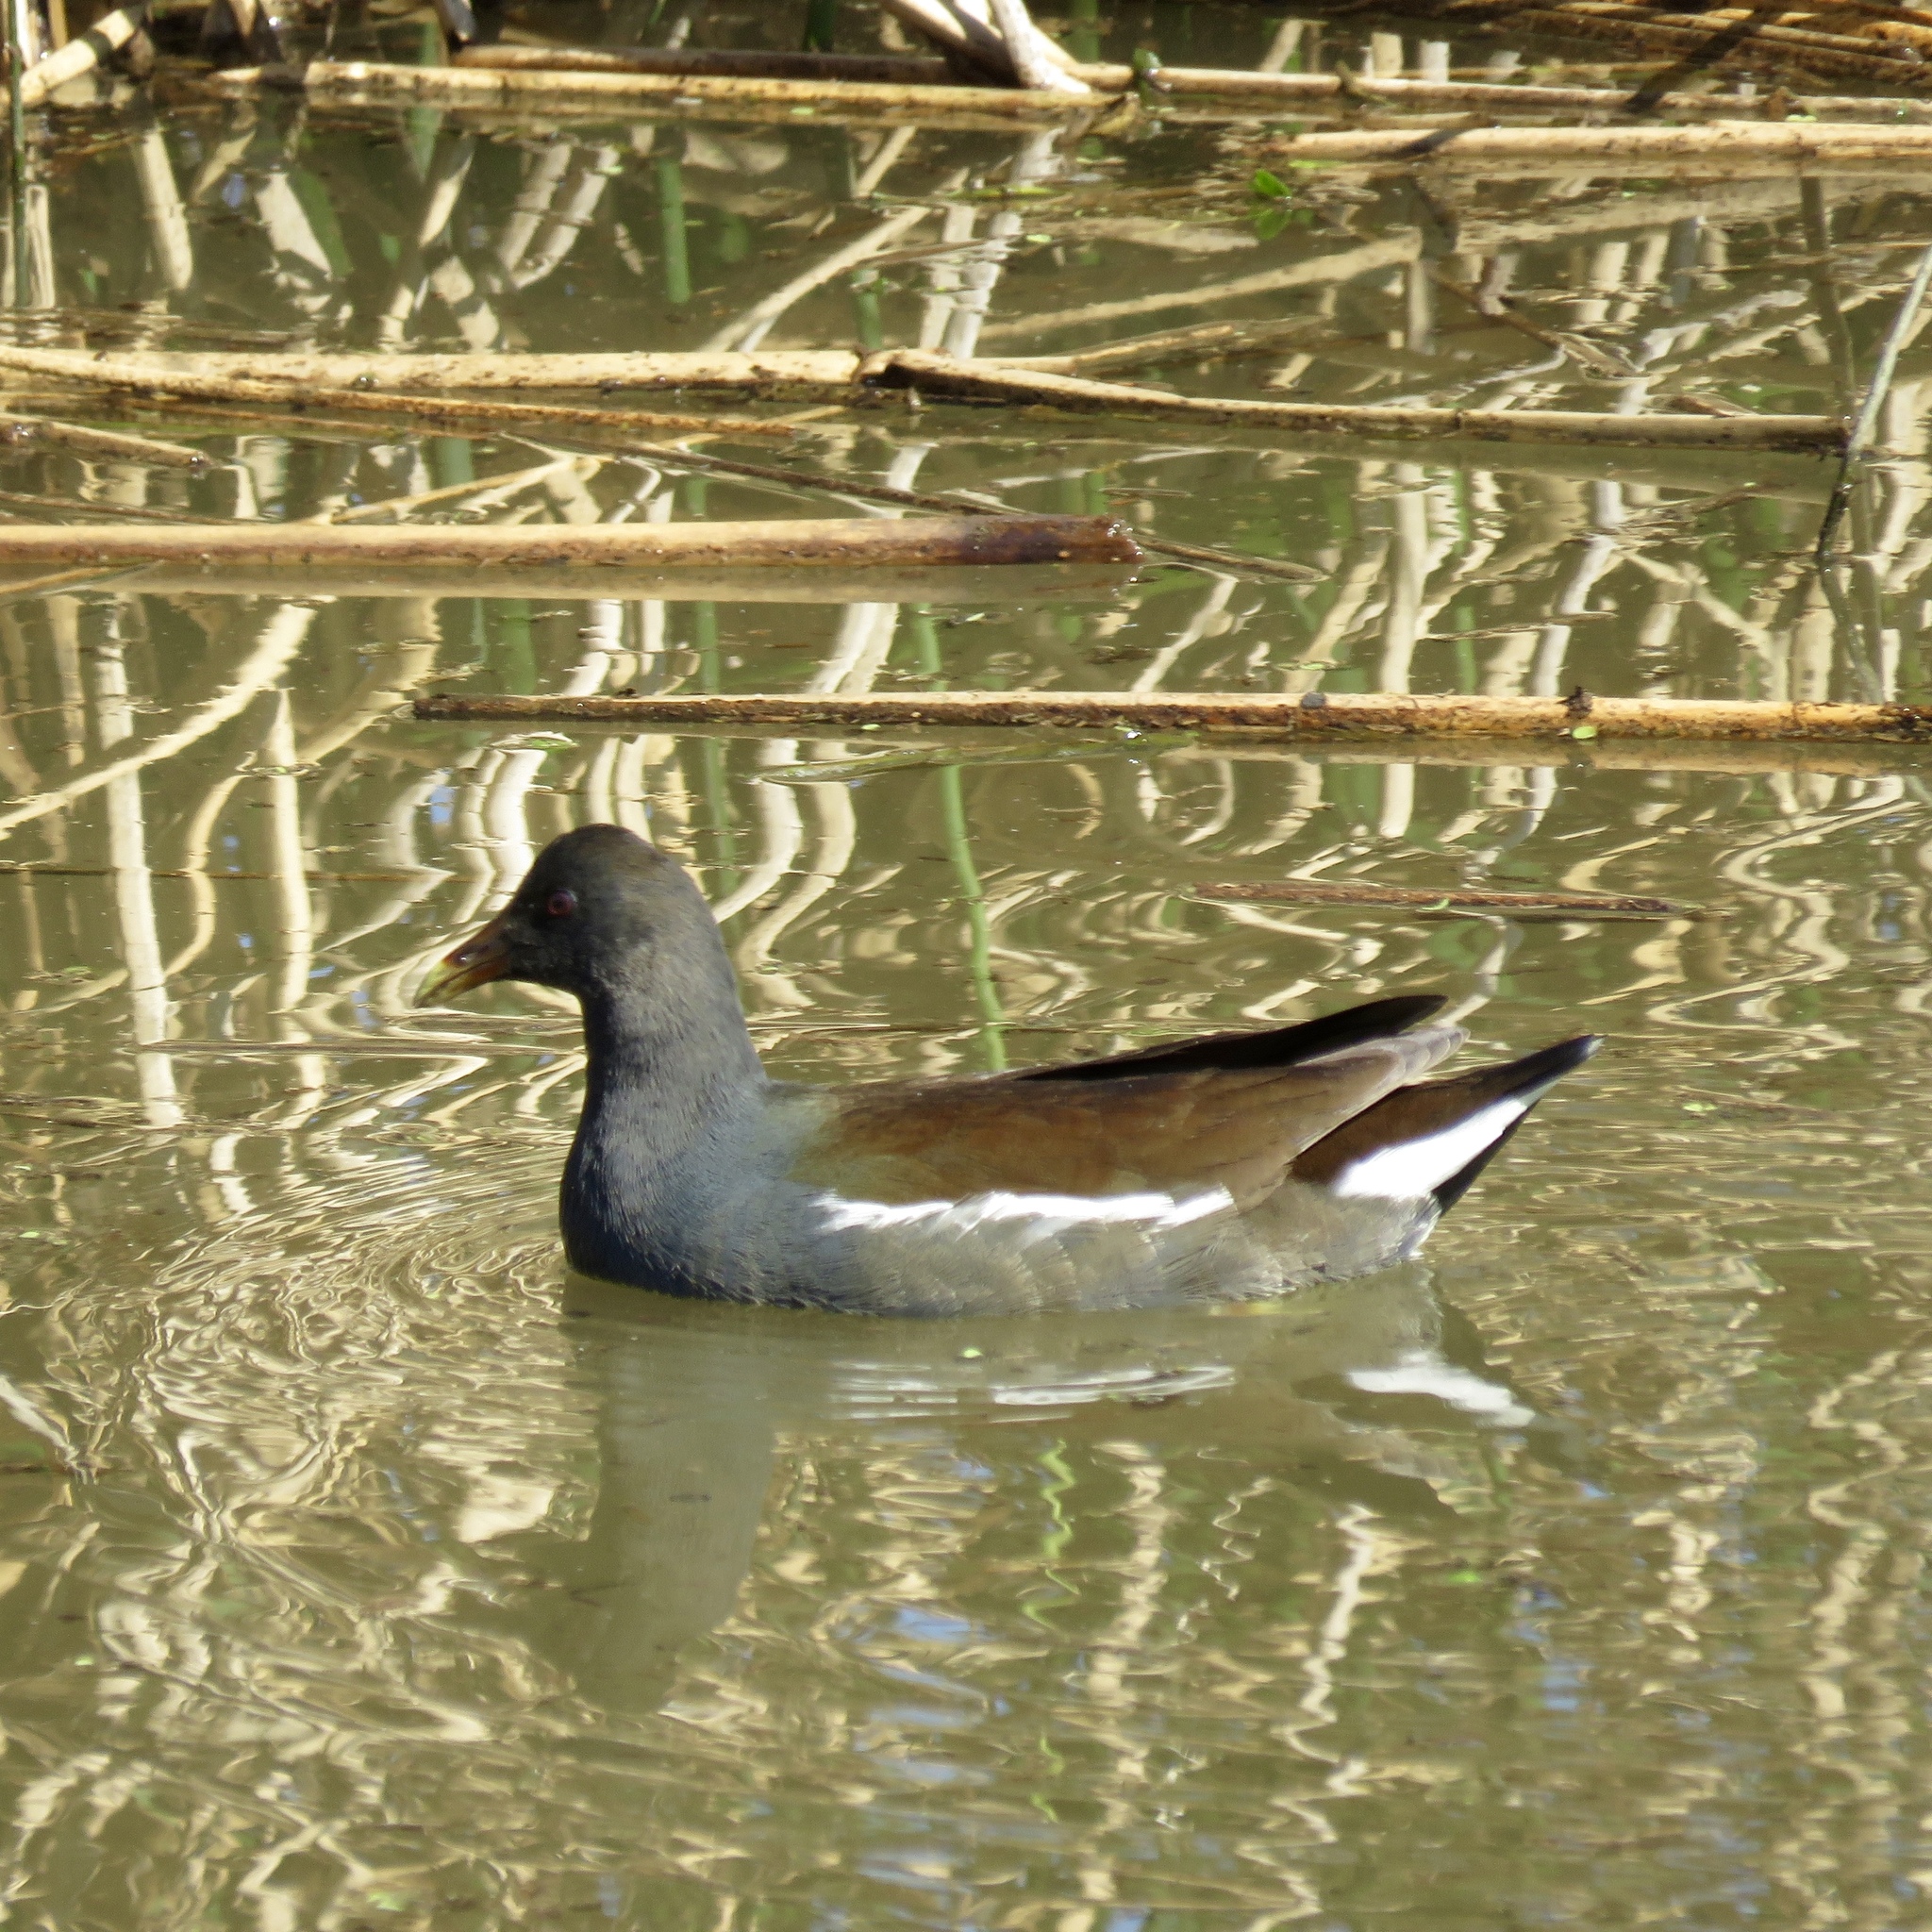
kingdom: Animalia
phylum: Chordata
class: Aves
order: Gruiformes
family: Rallidae
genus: Gallinula
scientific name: Gallinula chloropus
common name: Common moorhen
